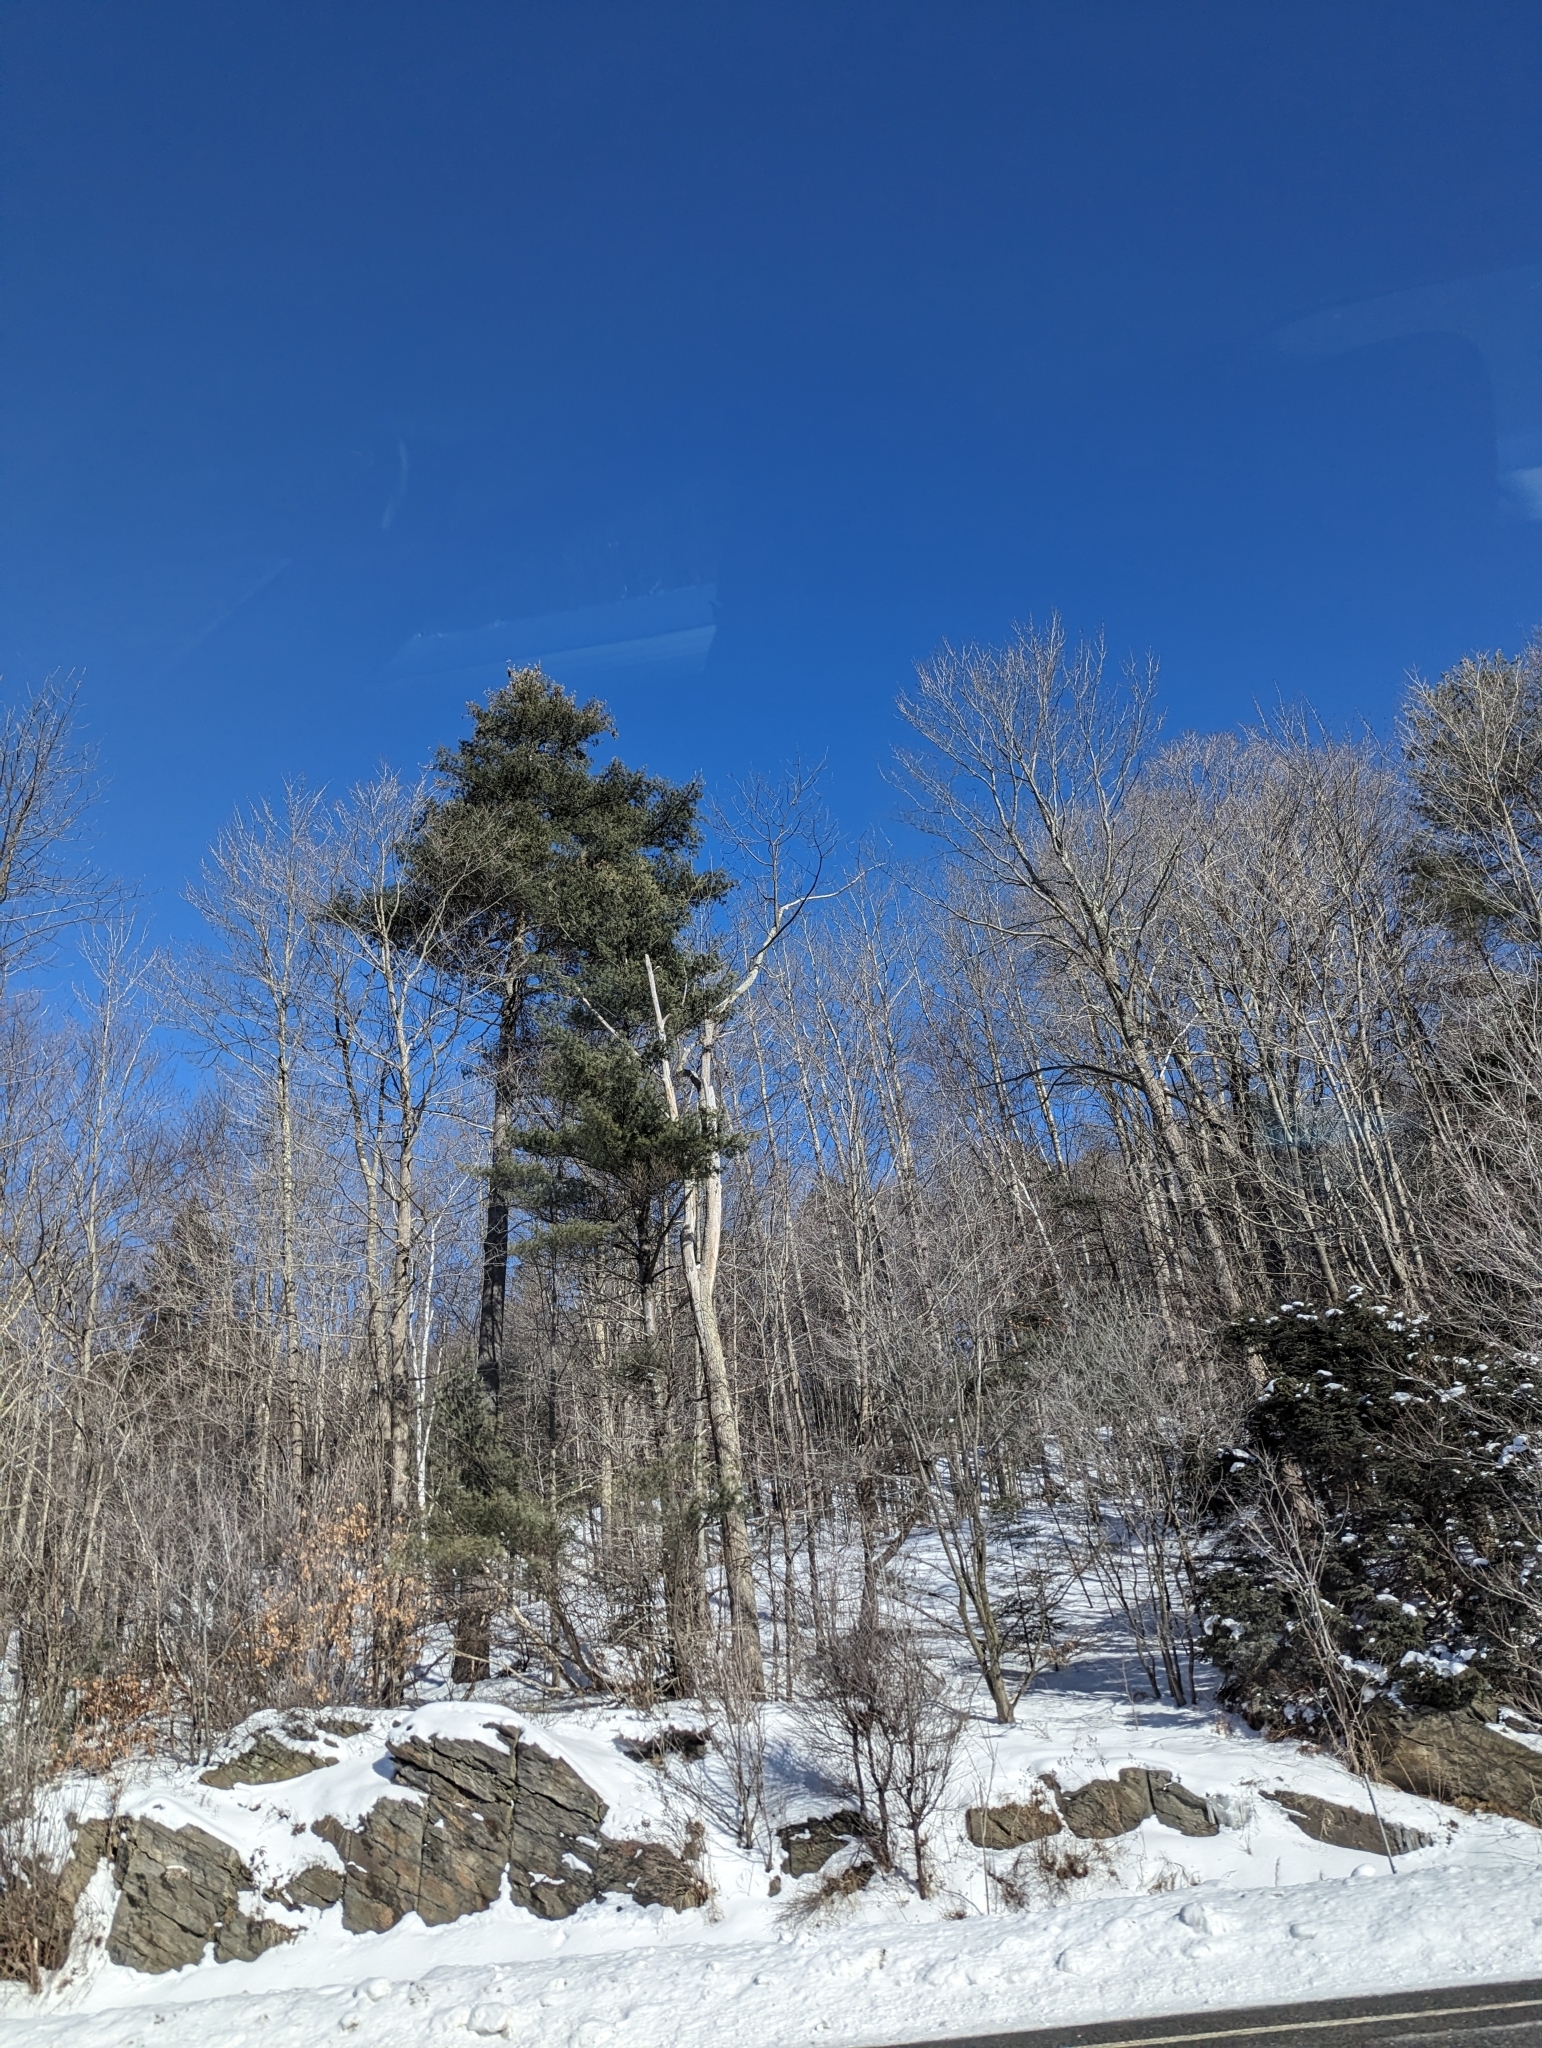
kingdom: Plantae
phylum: Tracheophyta
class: Pinopsida
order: Pinales
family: Pinaceae
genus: Pinus
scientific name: Pinus strobus
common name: Weymouth pine
